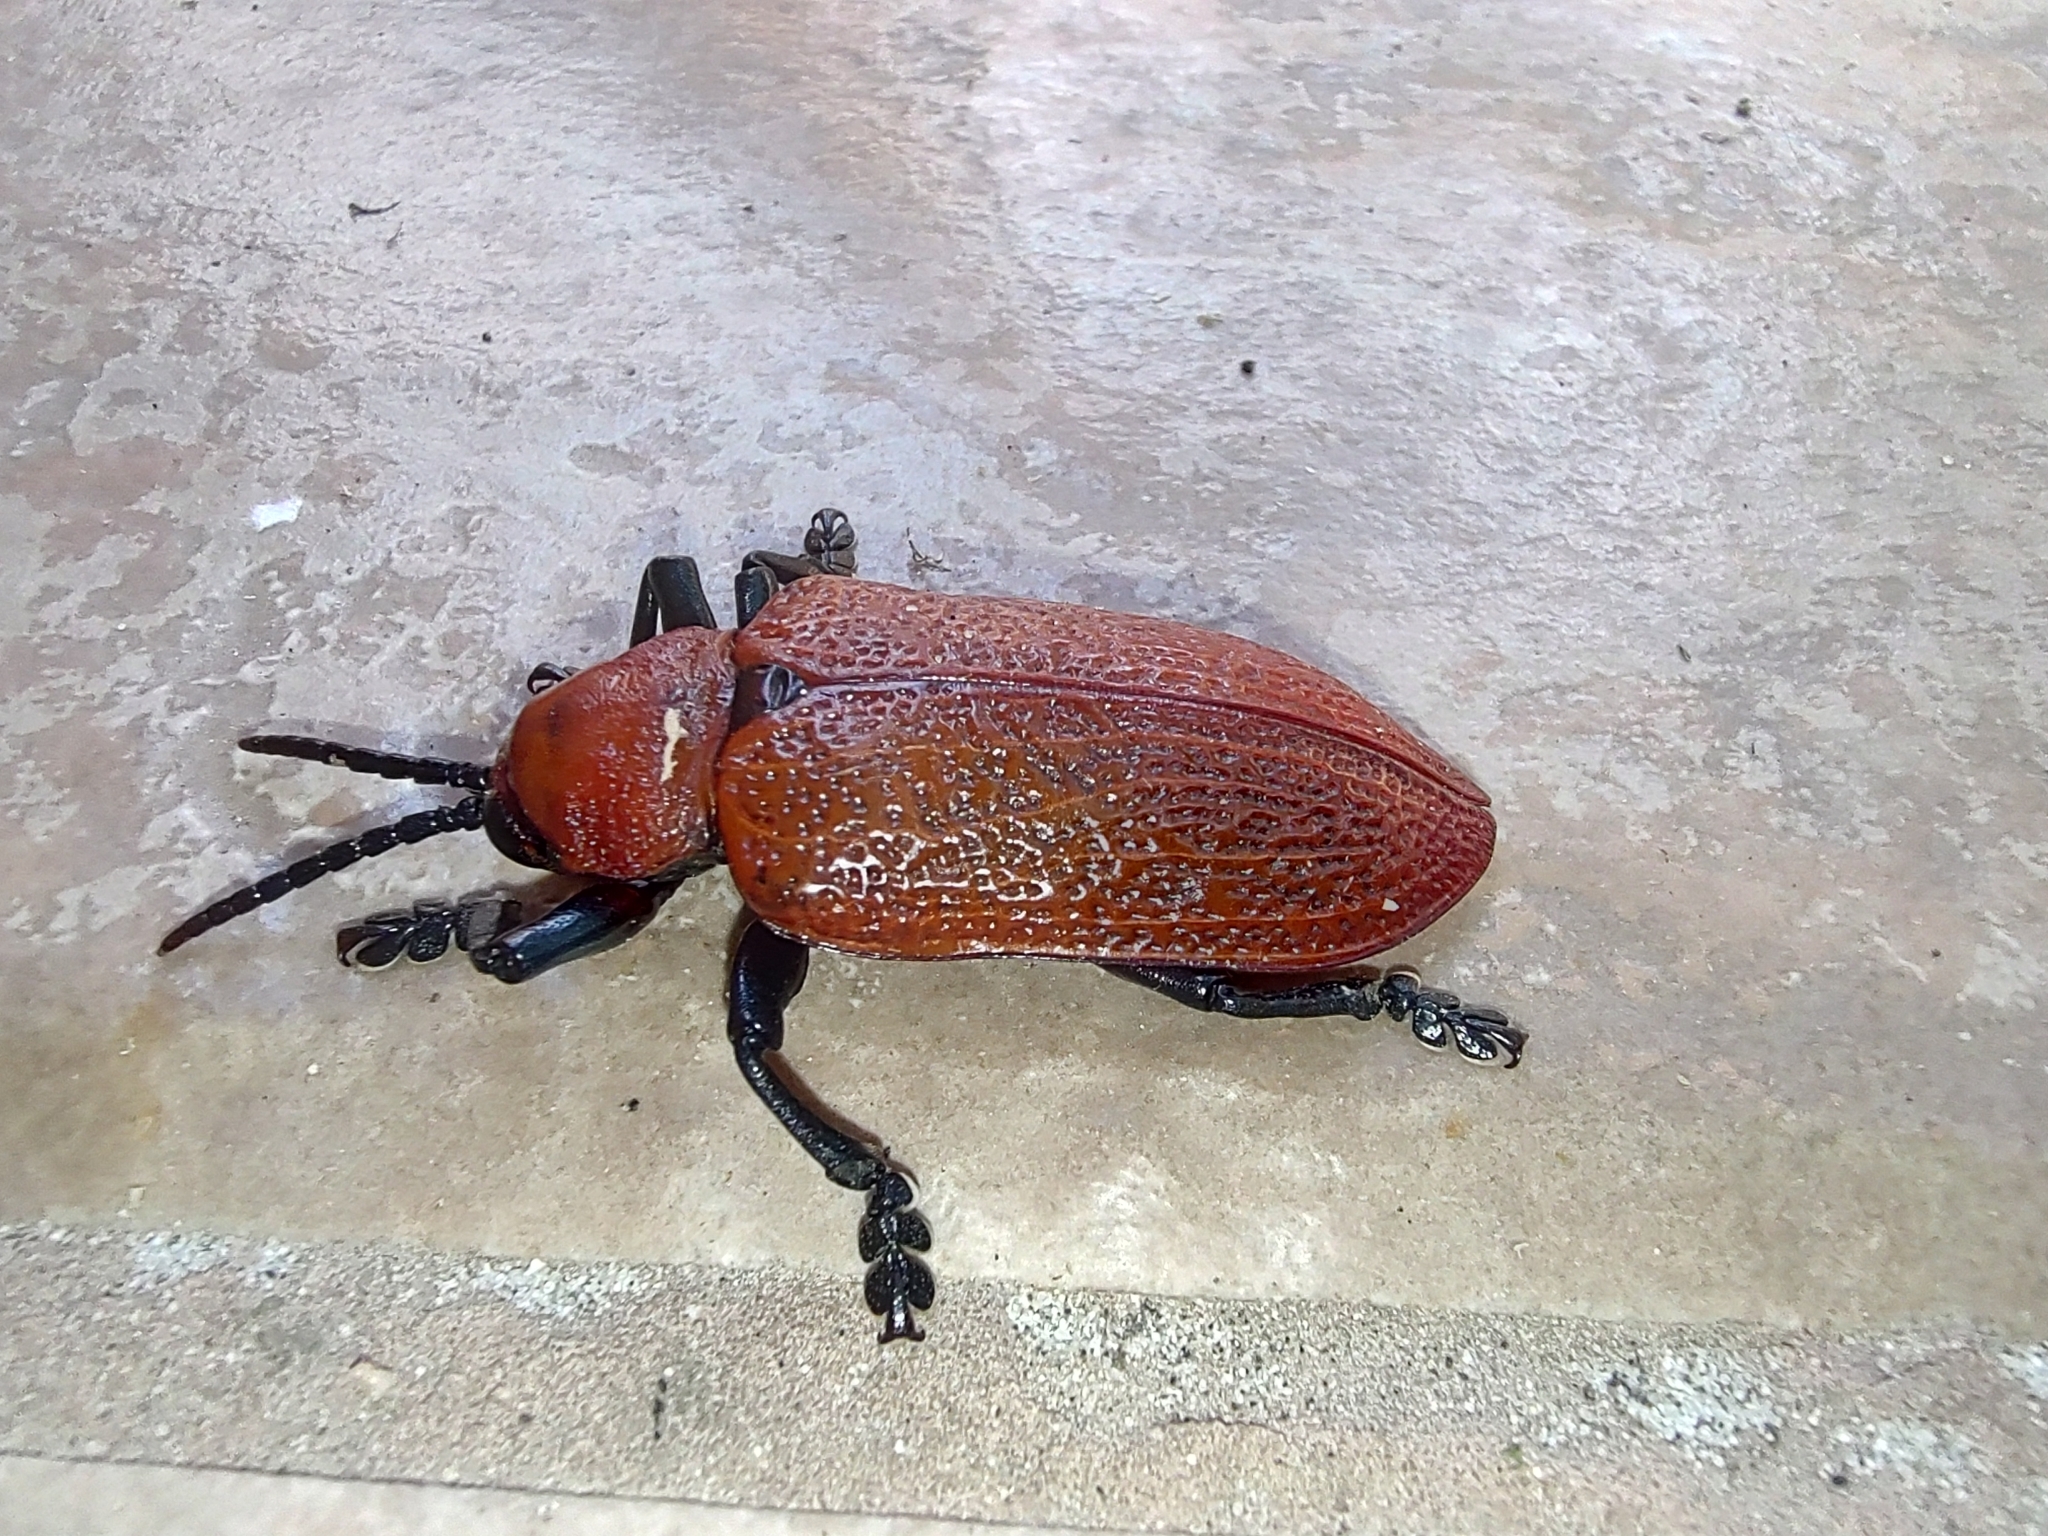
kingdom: Animalia
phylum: Arthropoda
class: Insecta
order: Coleoptera
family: Chrysomelidae
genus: Coraliomela
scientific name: Coraliomela brunnea
